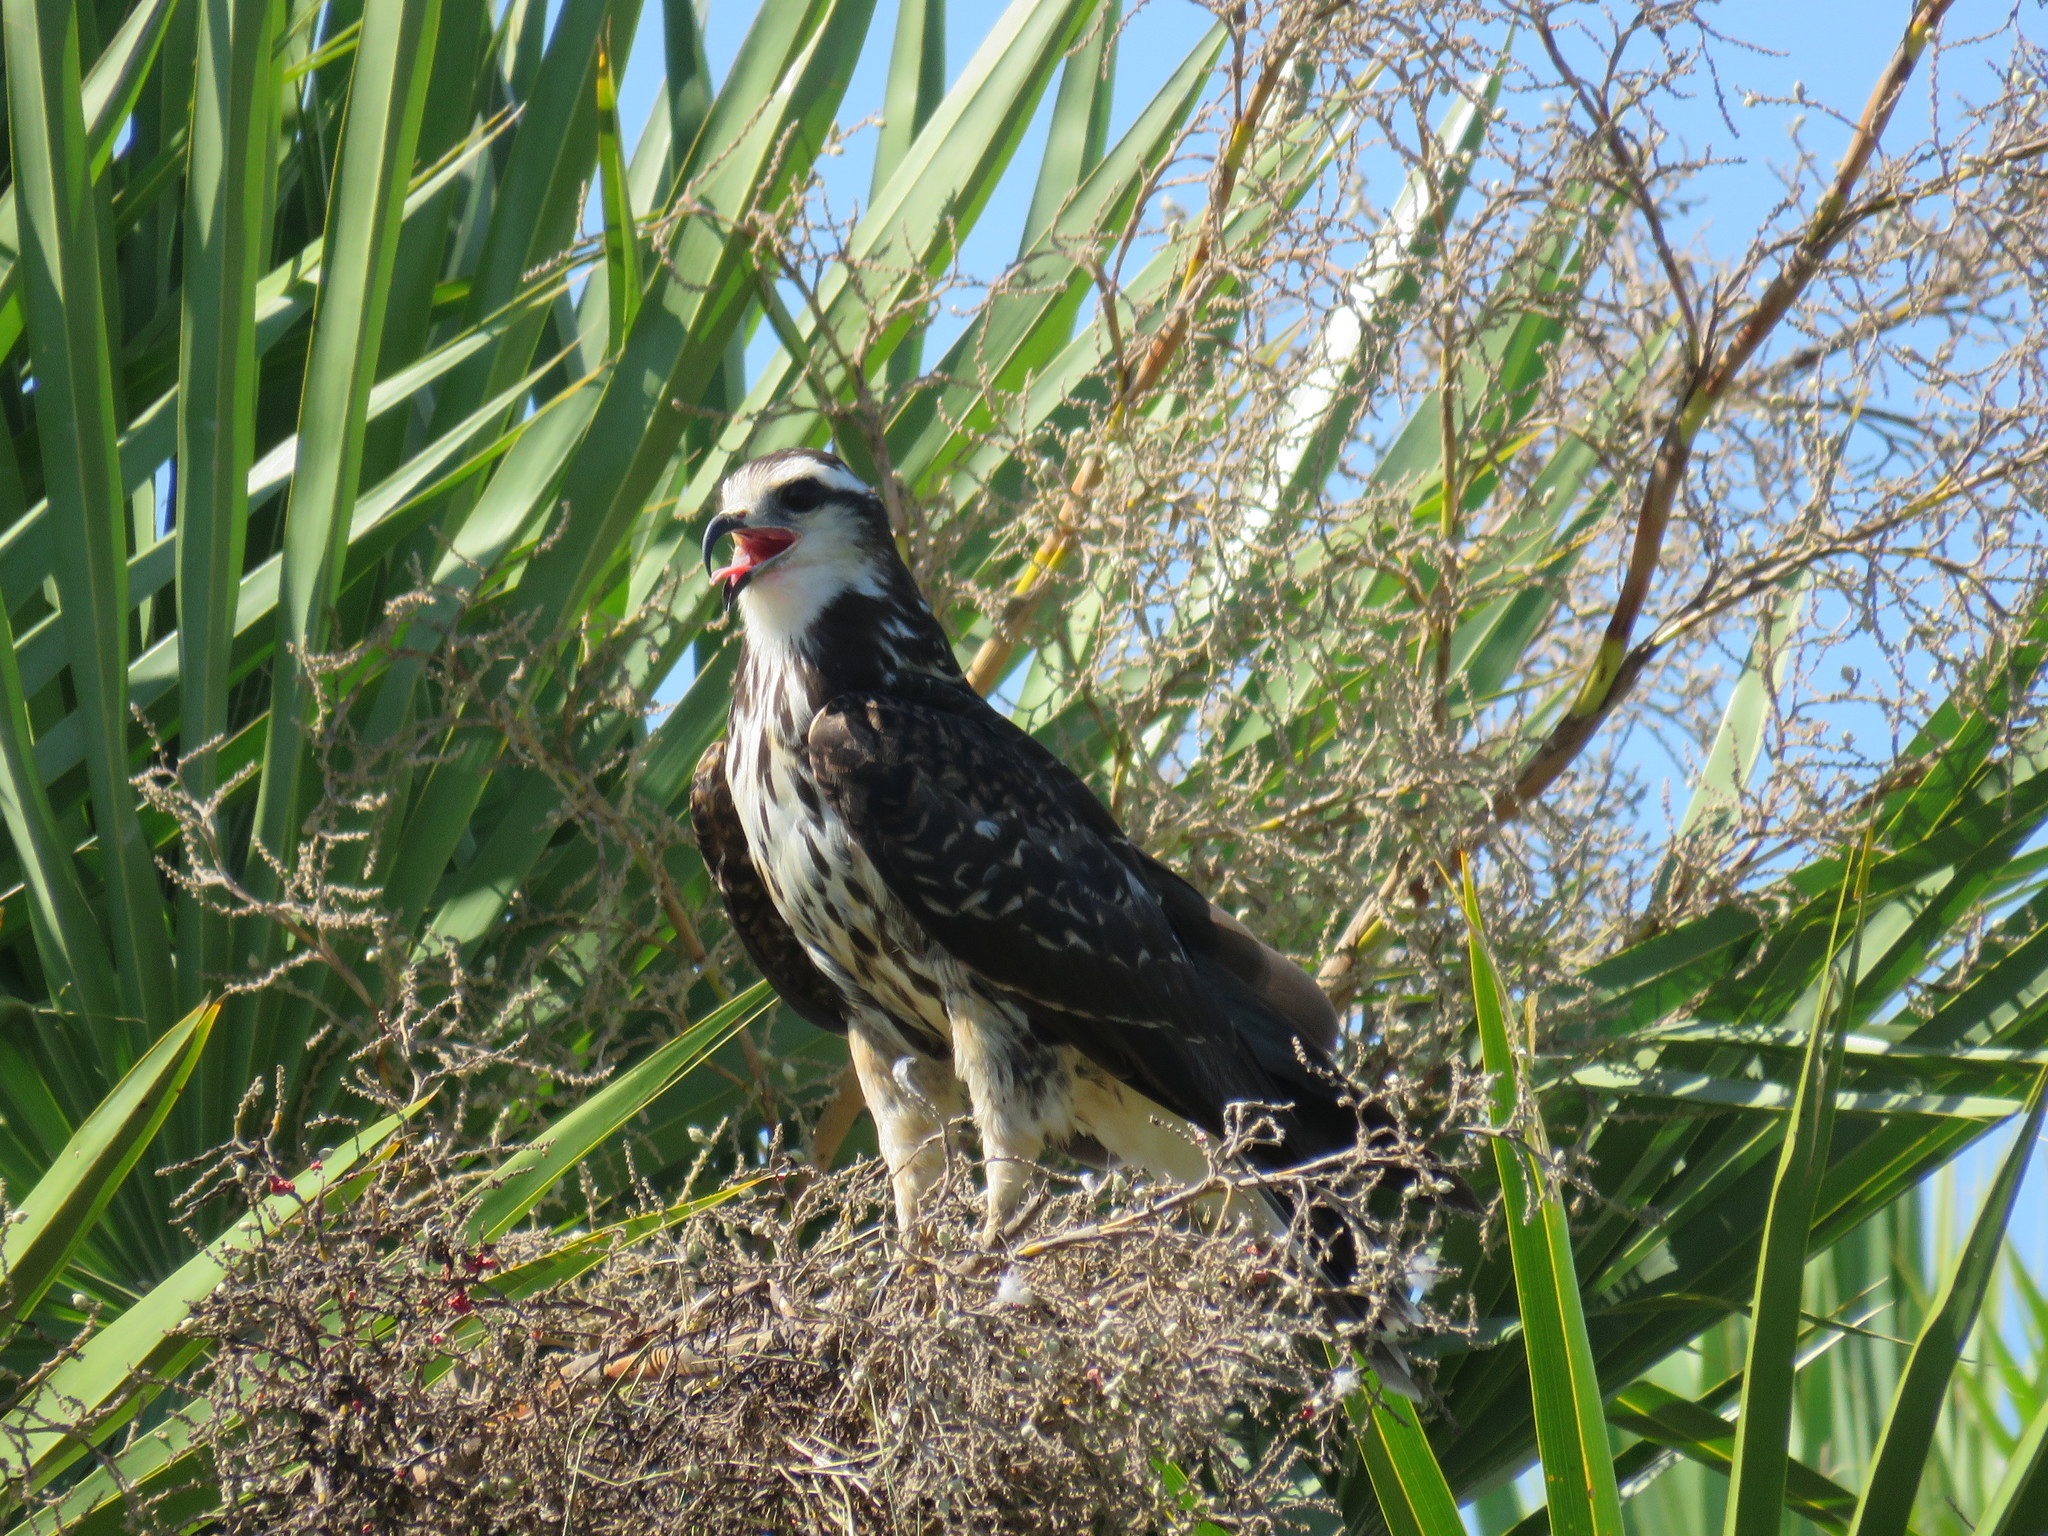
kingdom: Animalia
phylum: Chordata
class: Aves
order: Accipitriformes
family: Accipitridae
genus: Rostrhamus
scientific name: Rostrhamus sociabilis
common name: Snail kite
